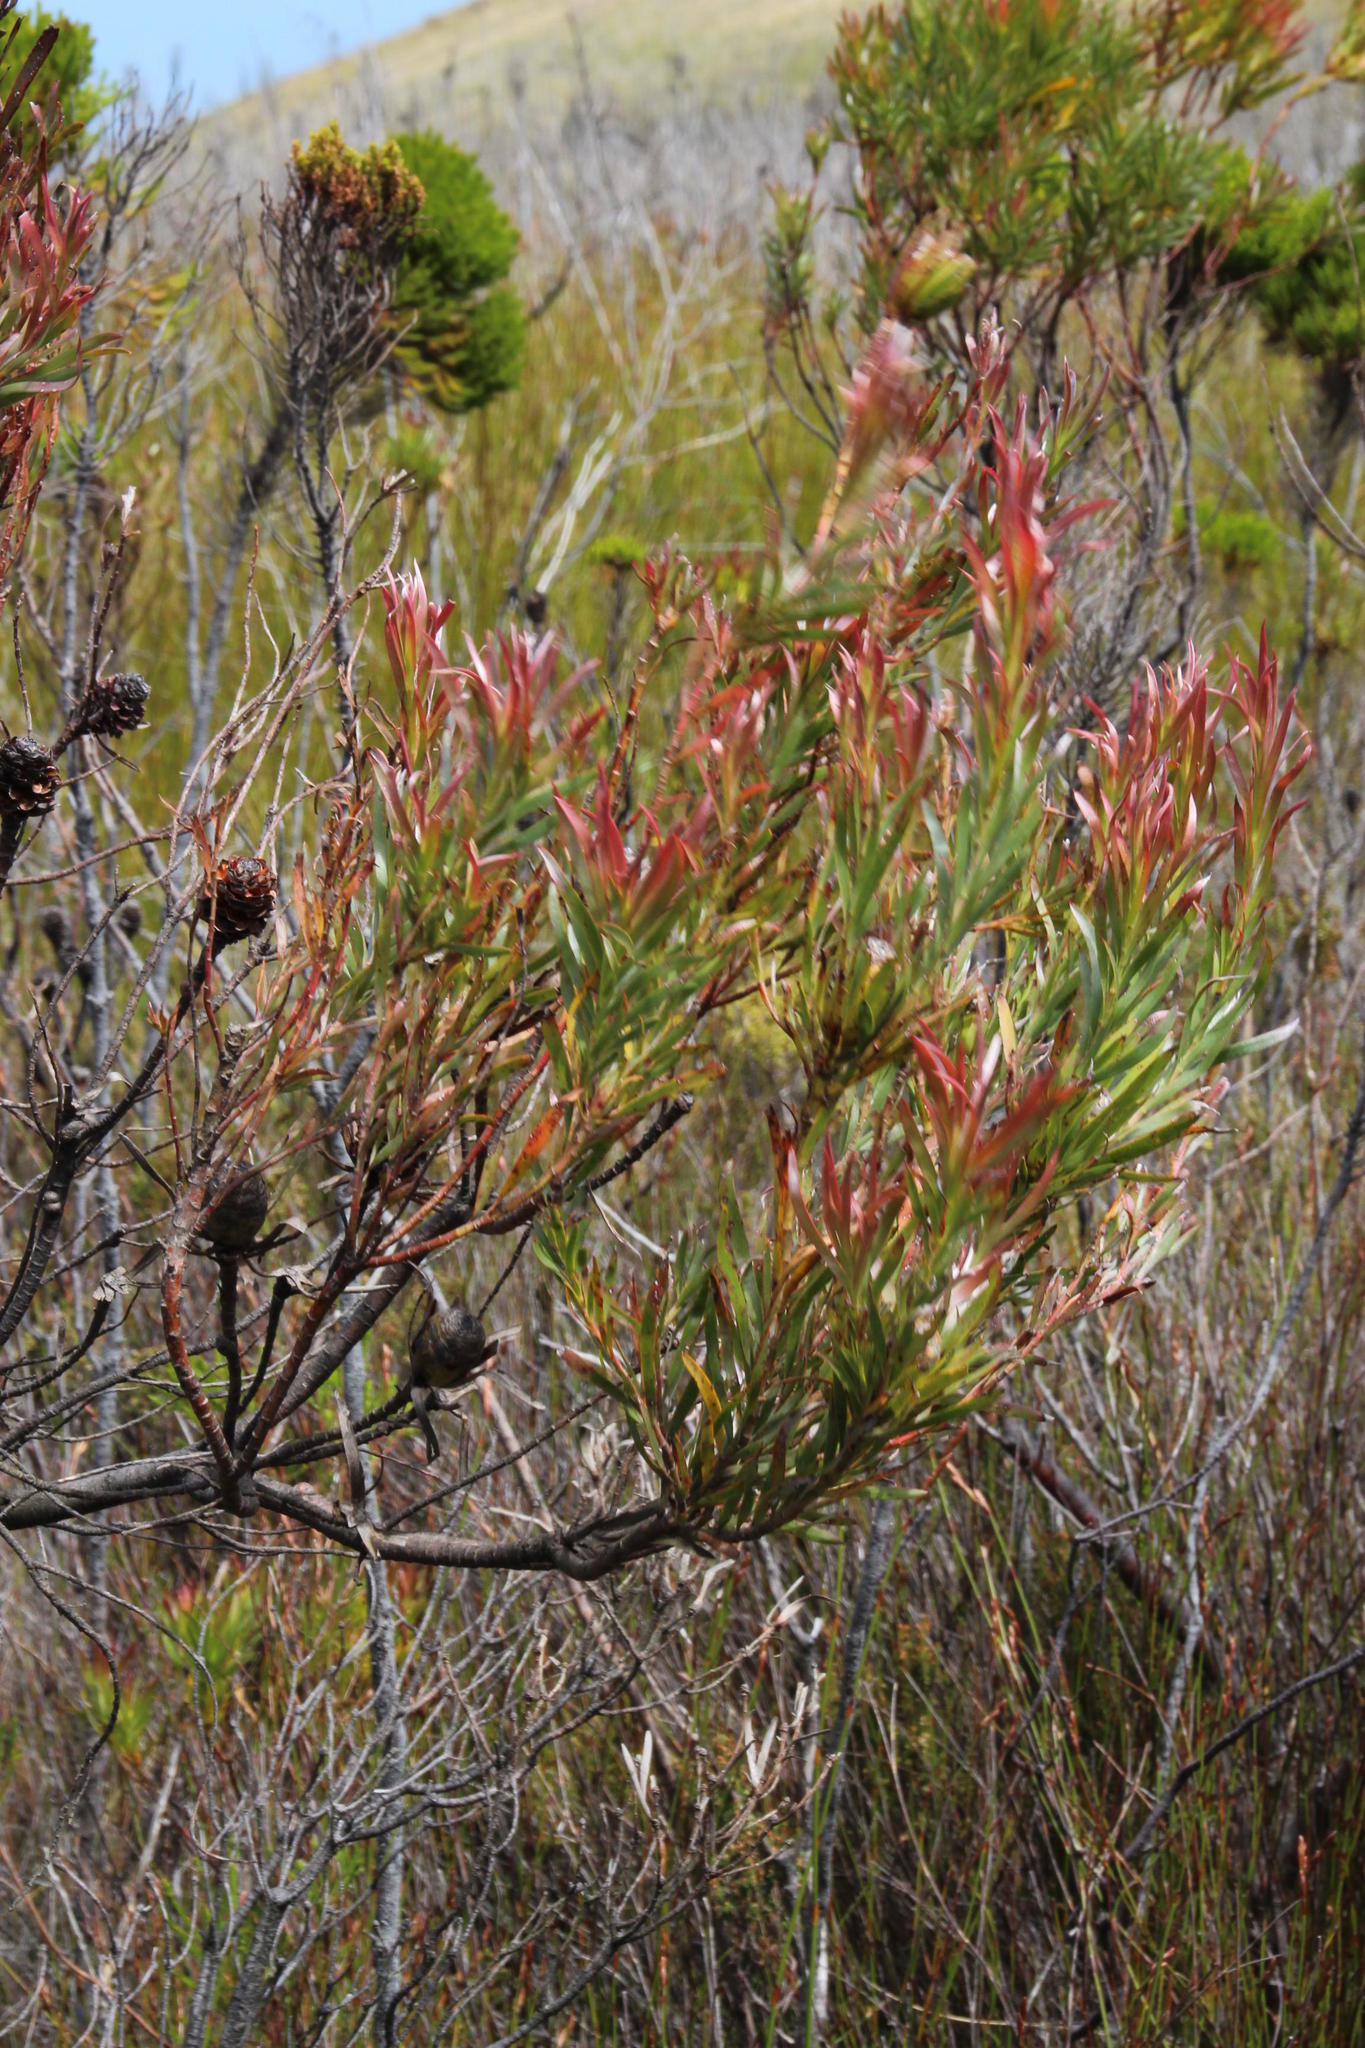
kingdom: Plantae
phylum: Tracheophyta
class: Magnoliopsida
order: Proteales
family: Proteaceae
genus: Leucadendron
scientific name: Leucadendron xanthoconus
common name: Sickle-leaf conebush
